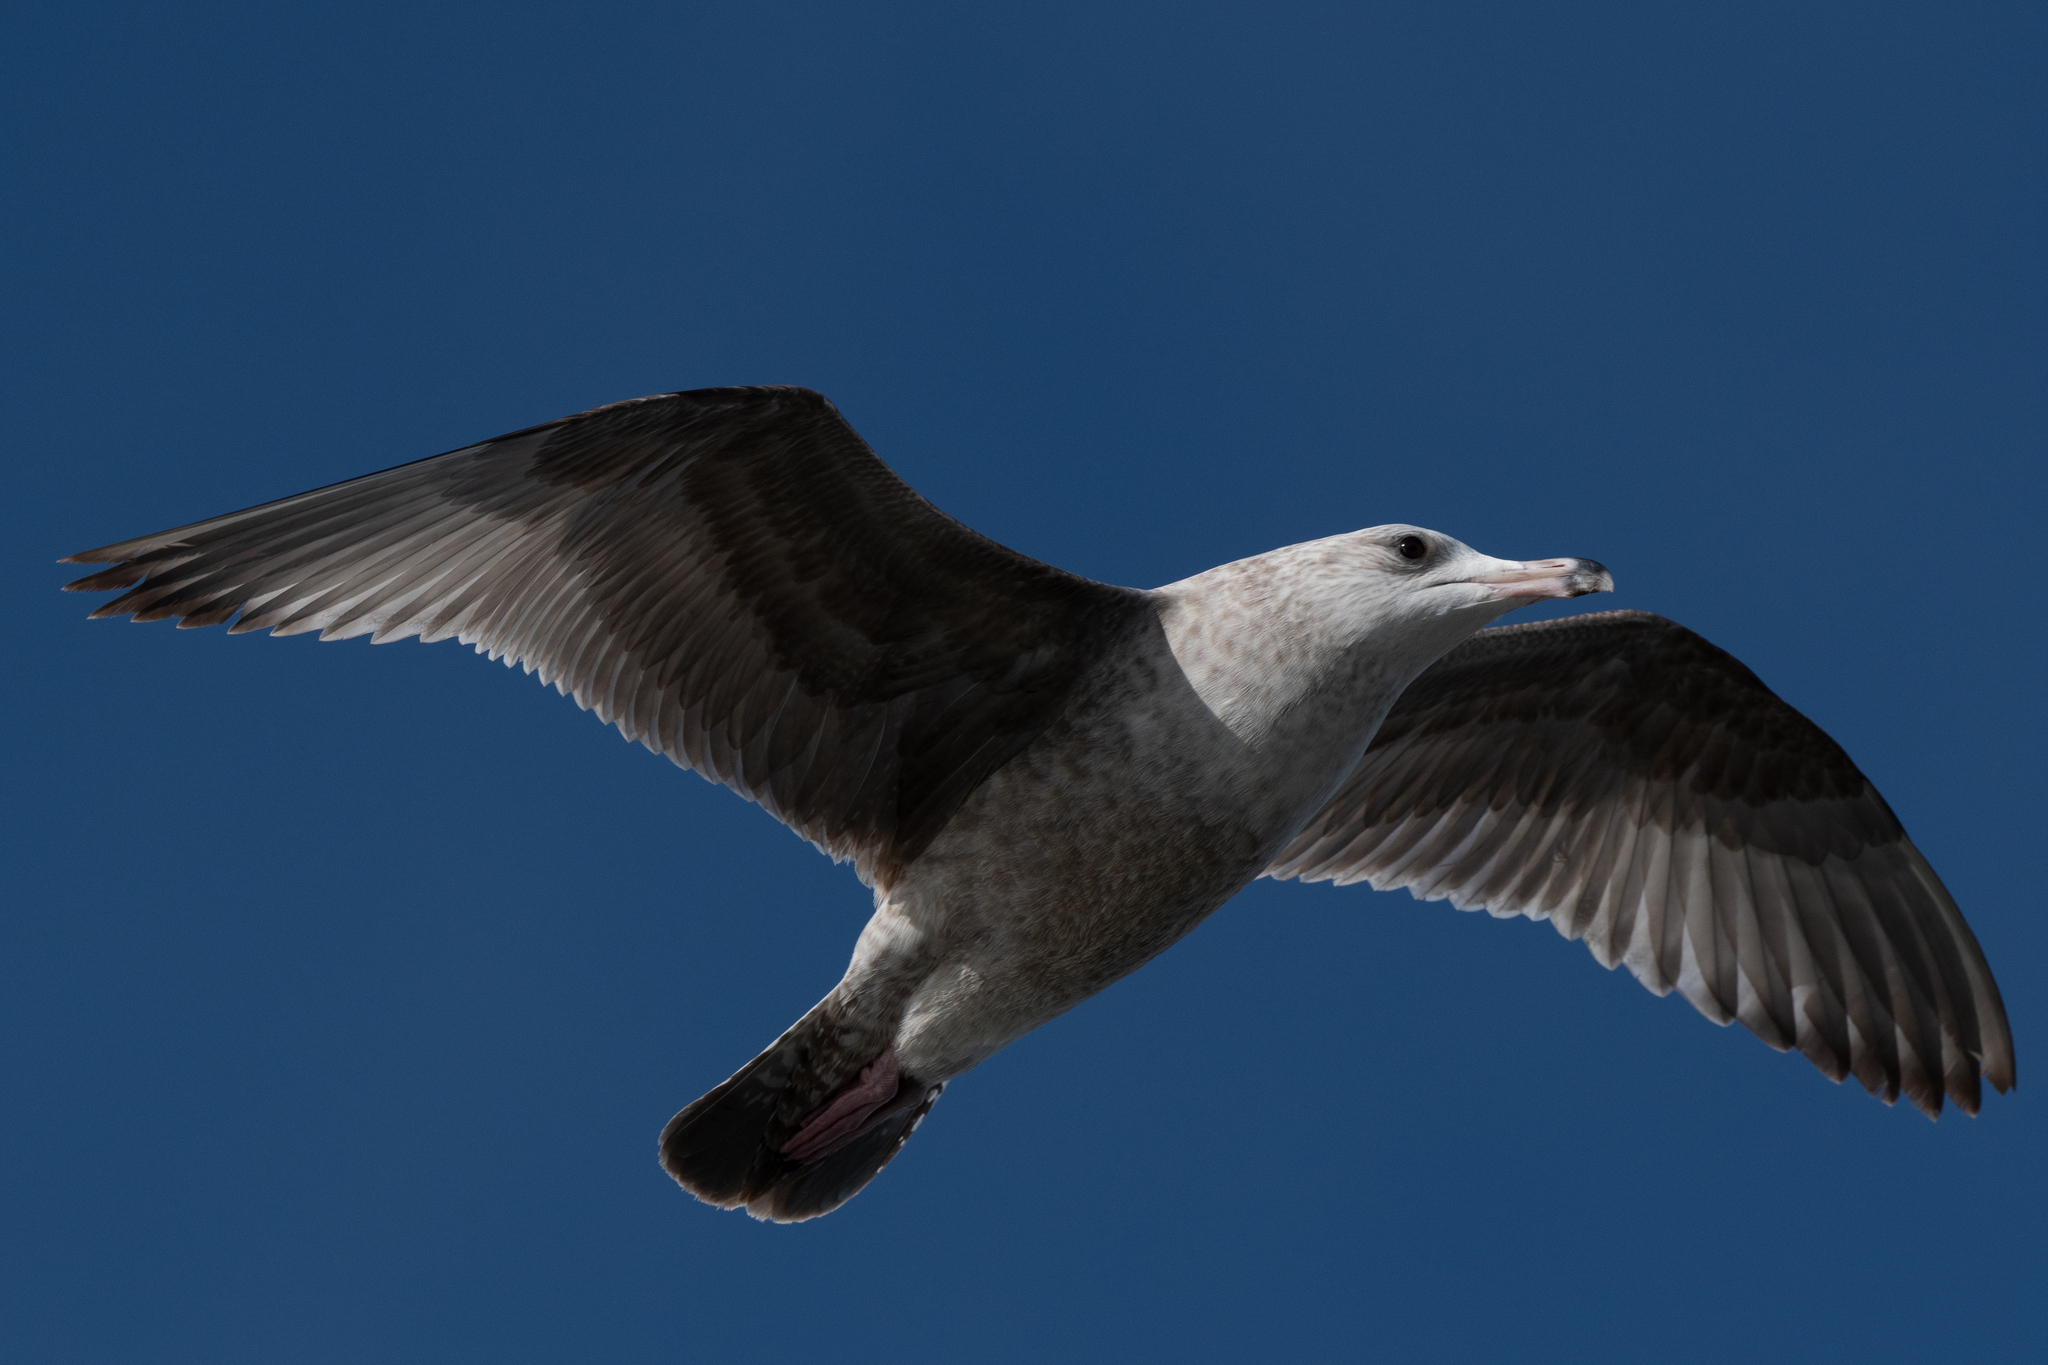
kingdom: Animalia
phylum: Chordata
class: Aves
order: Charadriiformes
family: Laridae
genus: Larus
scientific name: Larus argentatus
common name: Herring gull
